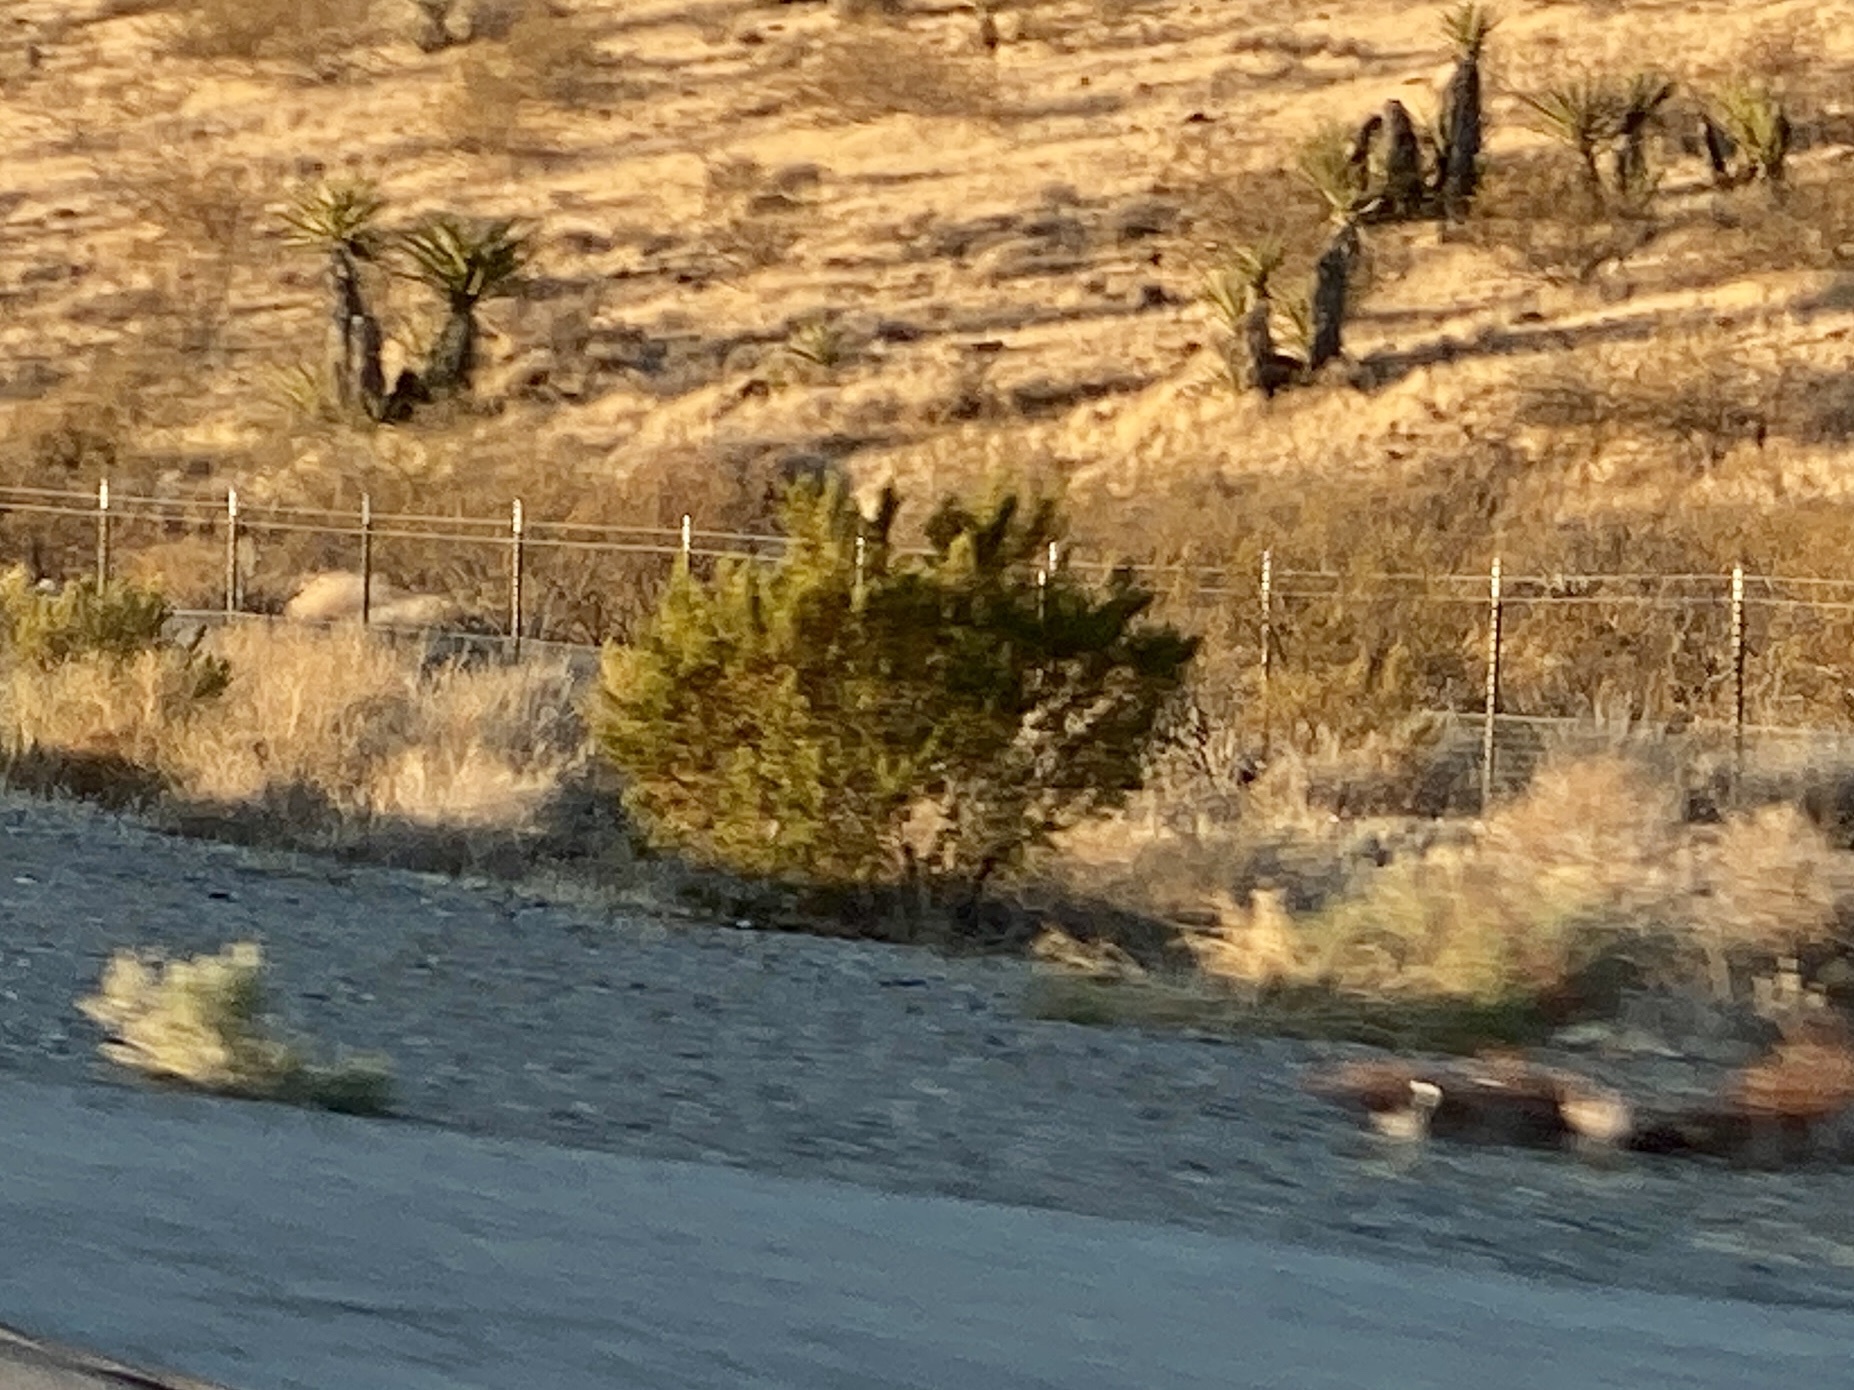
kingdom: Plantae
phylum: Tracheophyta
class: Magnoliopsida
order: Zygophyllales
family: Zygophyllaceae
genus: Larrea
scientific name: Larrea tridentata
